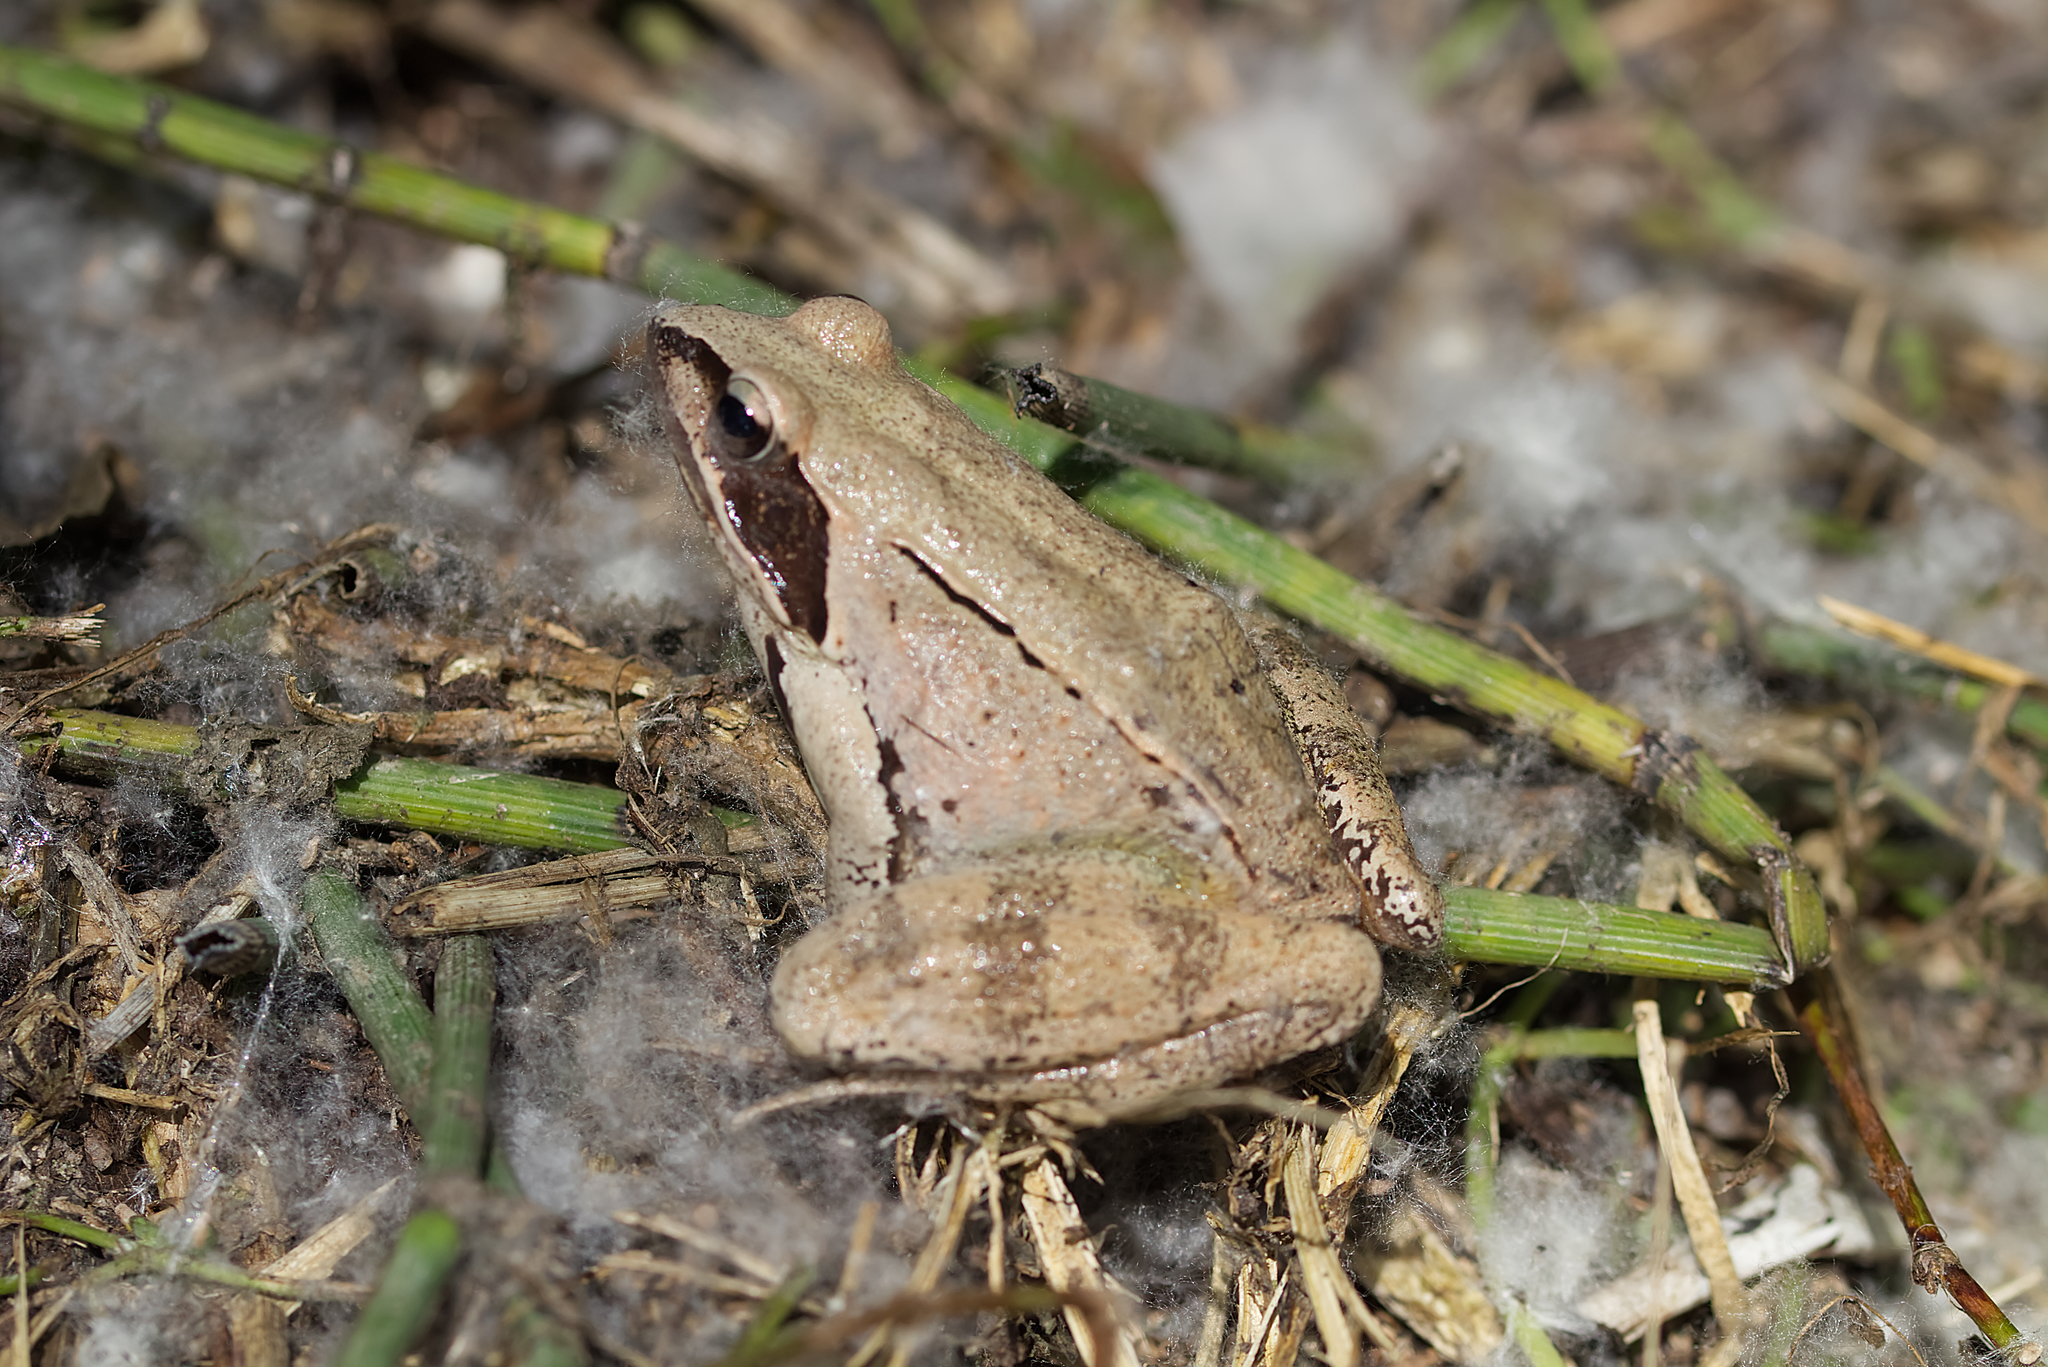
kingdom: Animalia
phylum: Chordata
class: Amphibia
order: Anura
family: Ranidae
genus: Rana
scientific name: Rana dalmatina
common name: Agile frog
